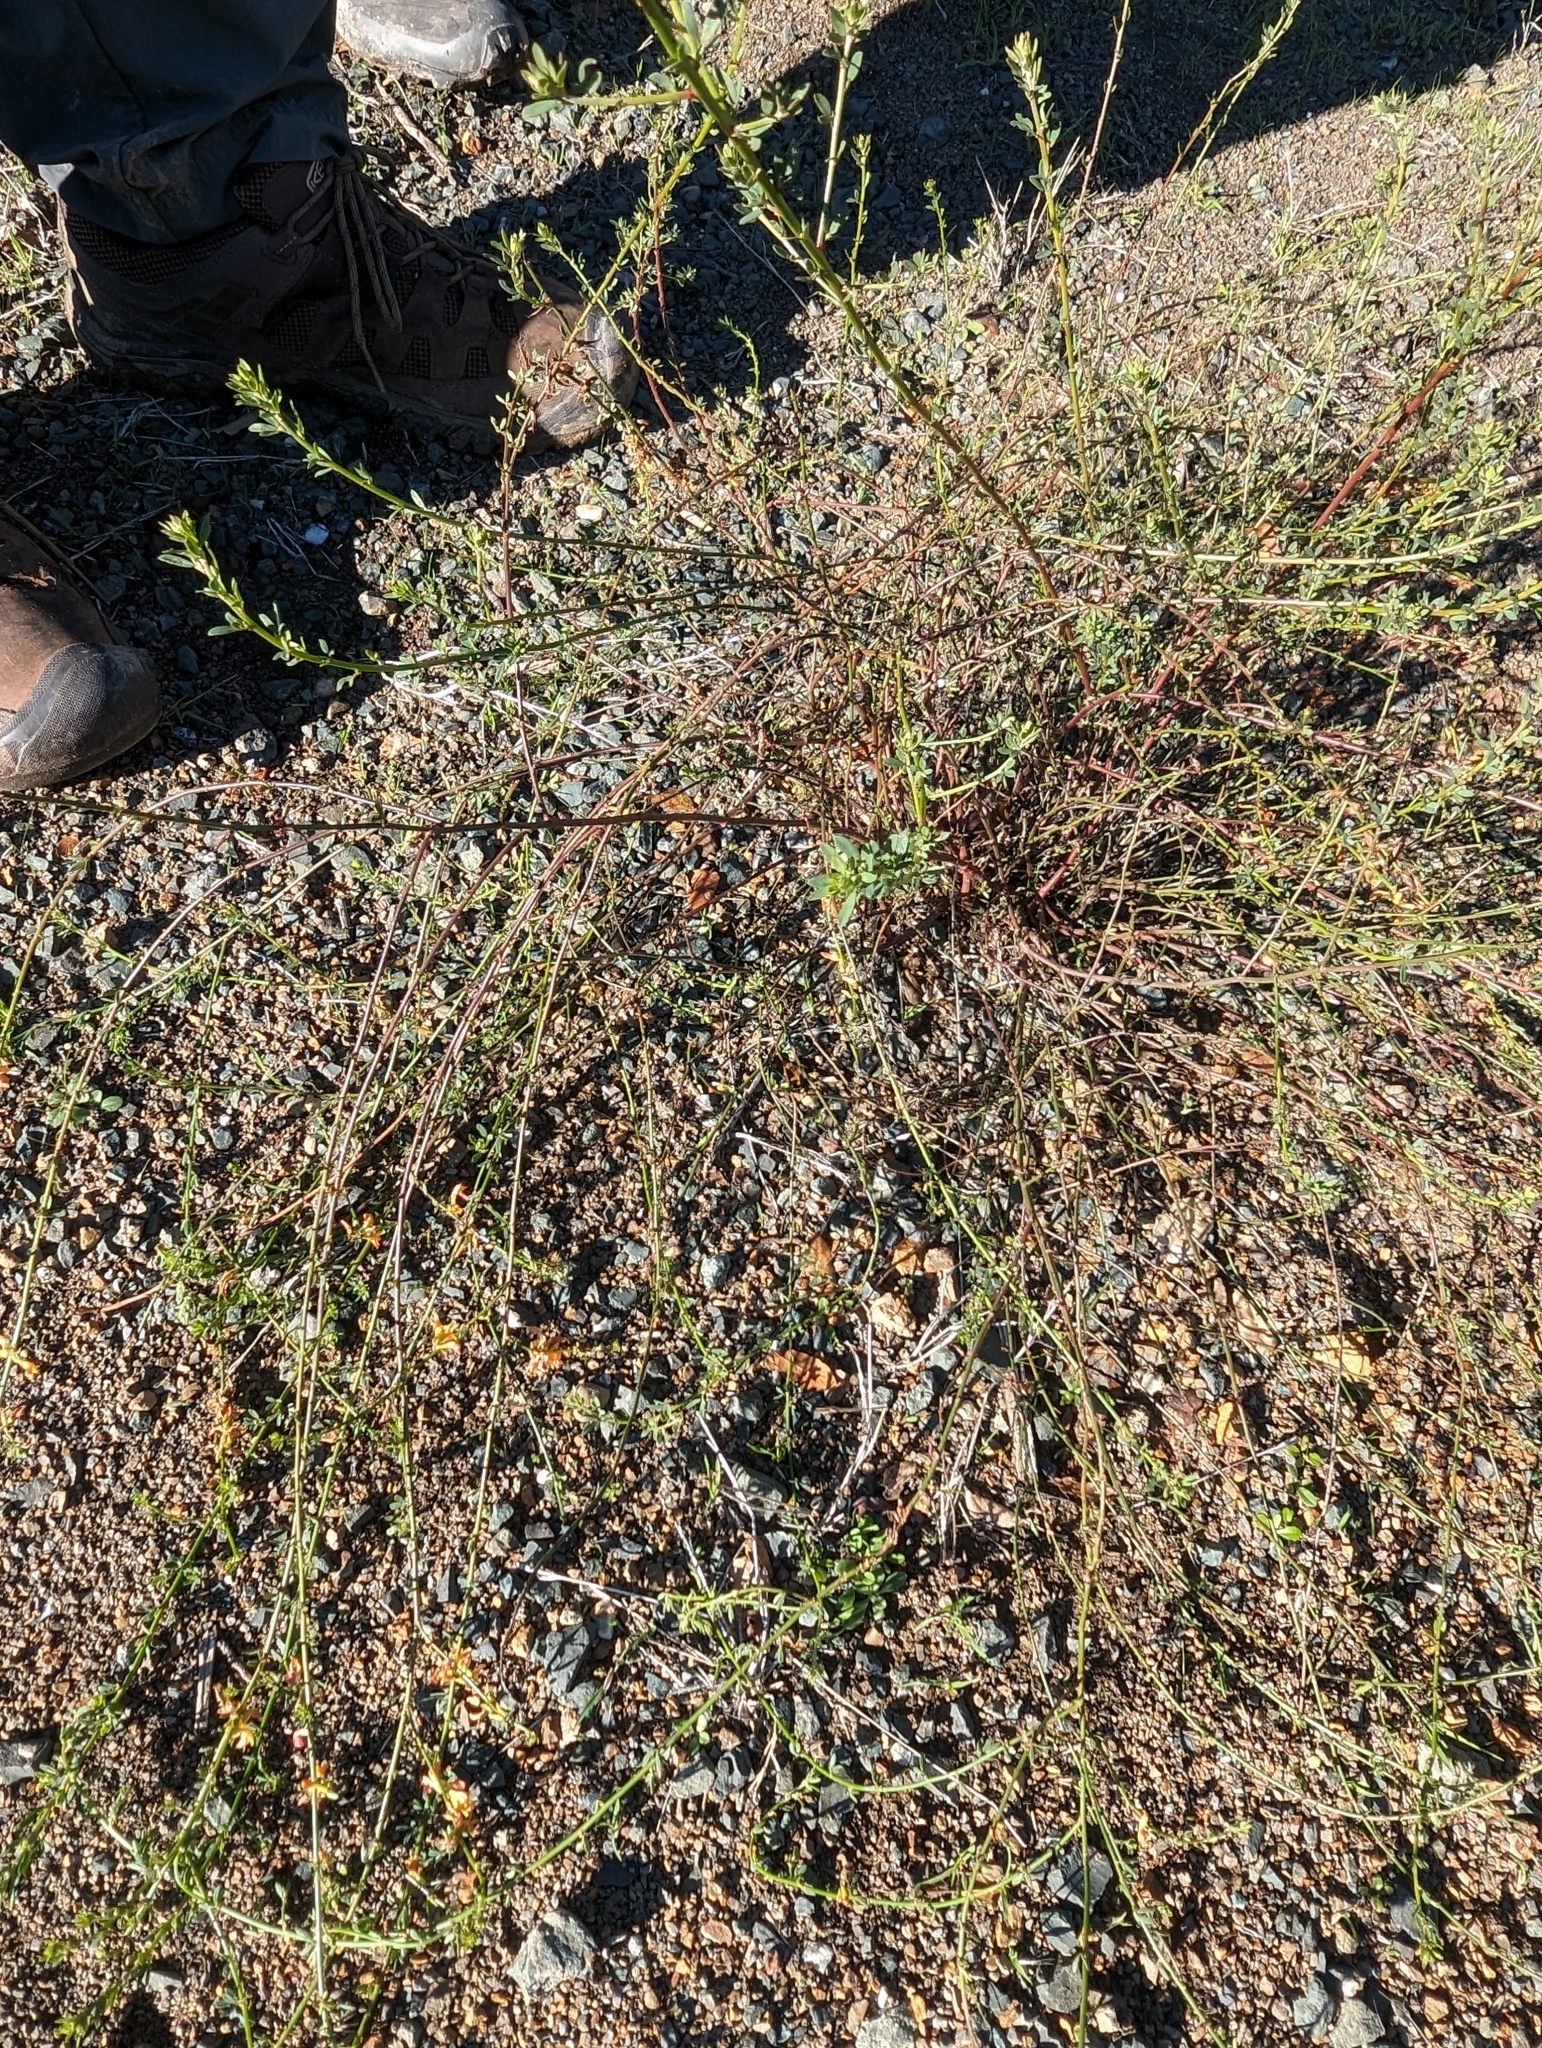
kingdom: Plantae
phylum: Tracheophyta
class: Magnoliopsida
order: Fabales
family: Fabaceae
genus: Acmispon
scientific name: Acmispon glaber
